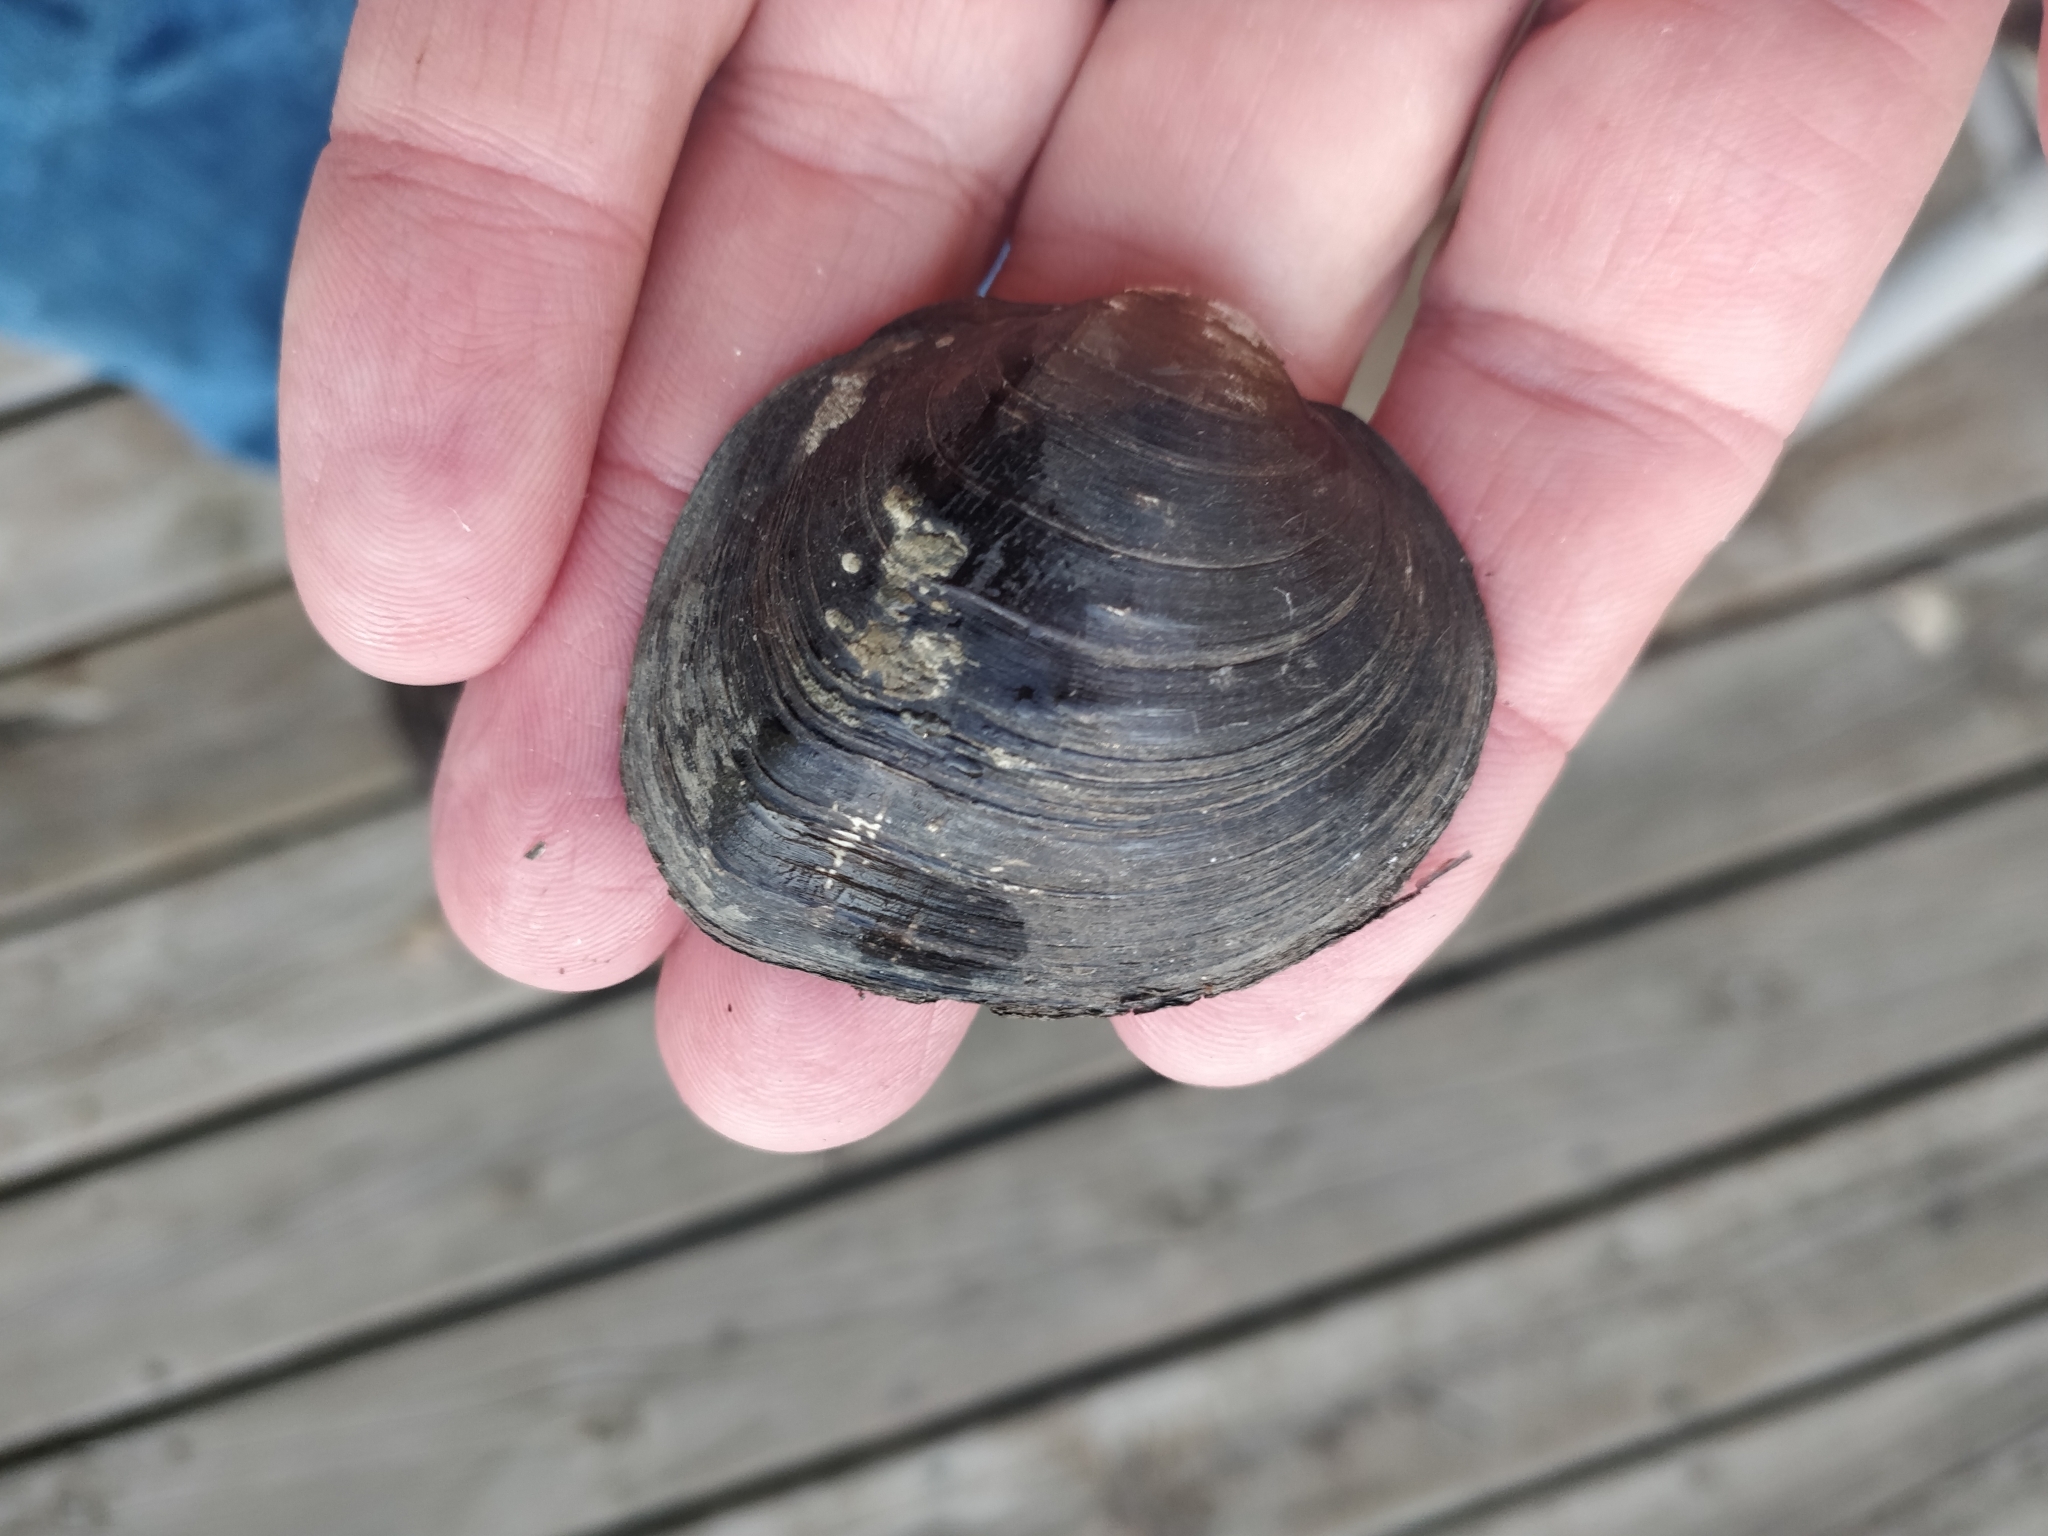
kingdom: Animalia
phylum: Mollusca
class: Bivalvia
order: Unionida
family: Unionidae
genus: Cyclonaias
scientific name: Cyclonaias pustulosa
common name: Pimpleback
